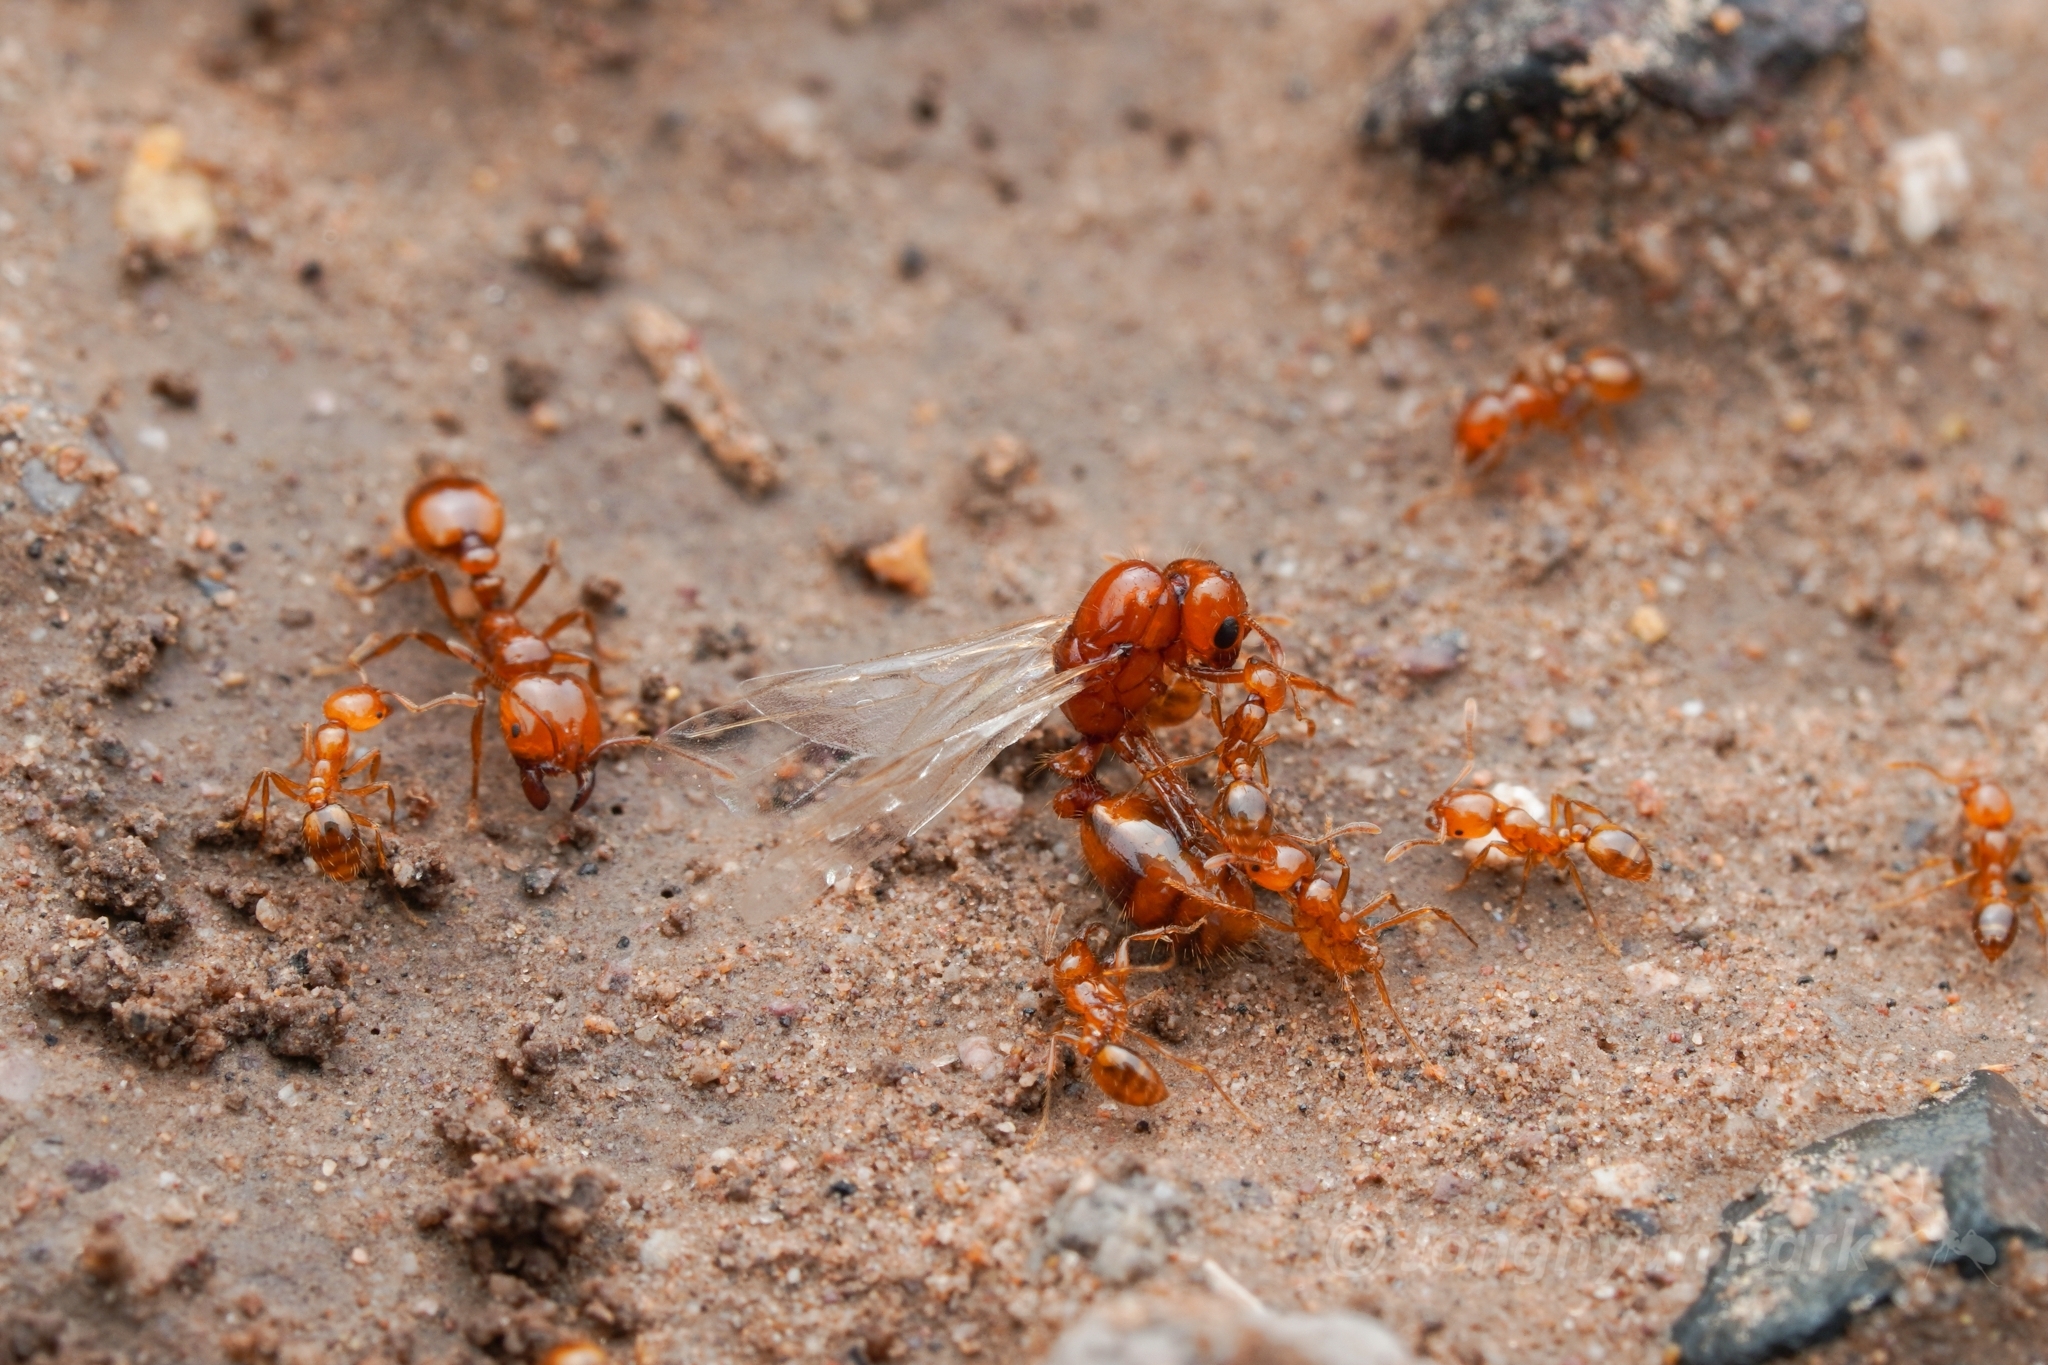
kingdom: Animalia
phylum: Arthropoda
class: Insecta
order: Hymenoptera
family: Formicidae
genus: Solenopsis
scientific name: Solenopsis amblychila
